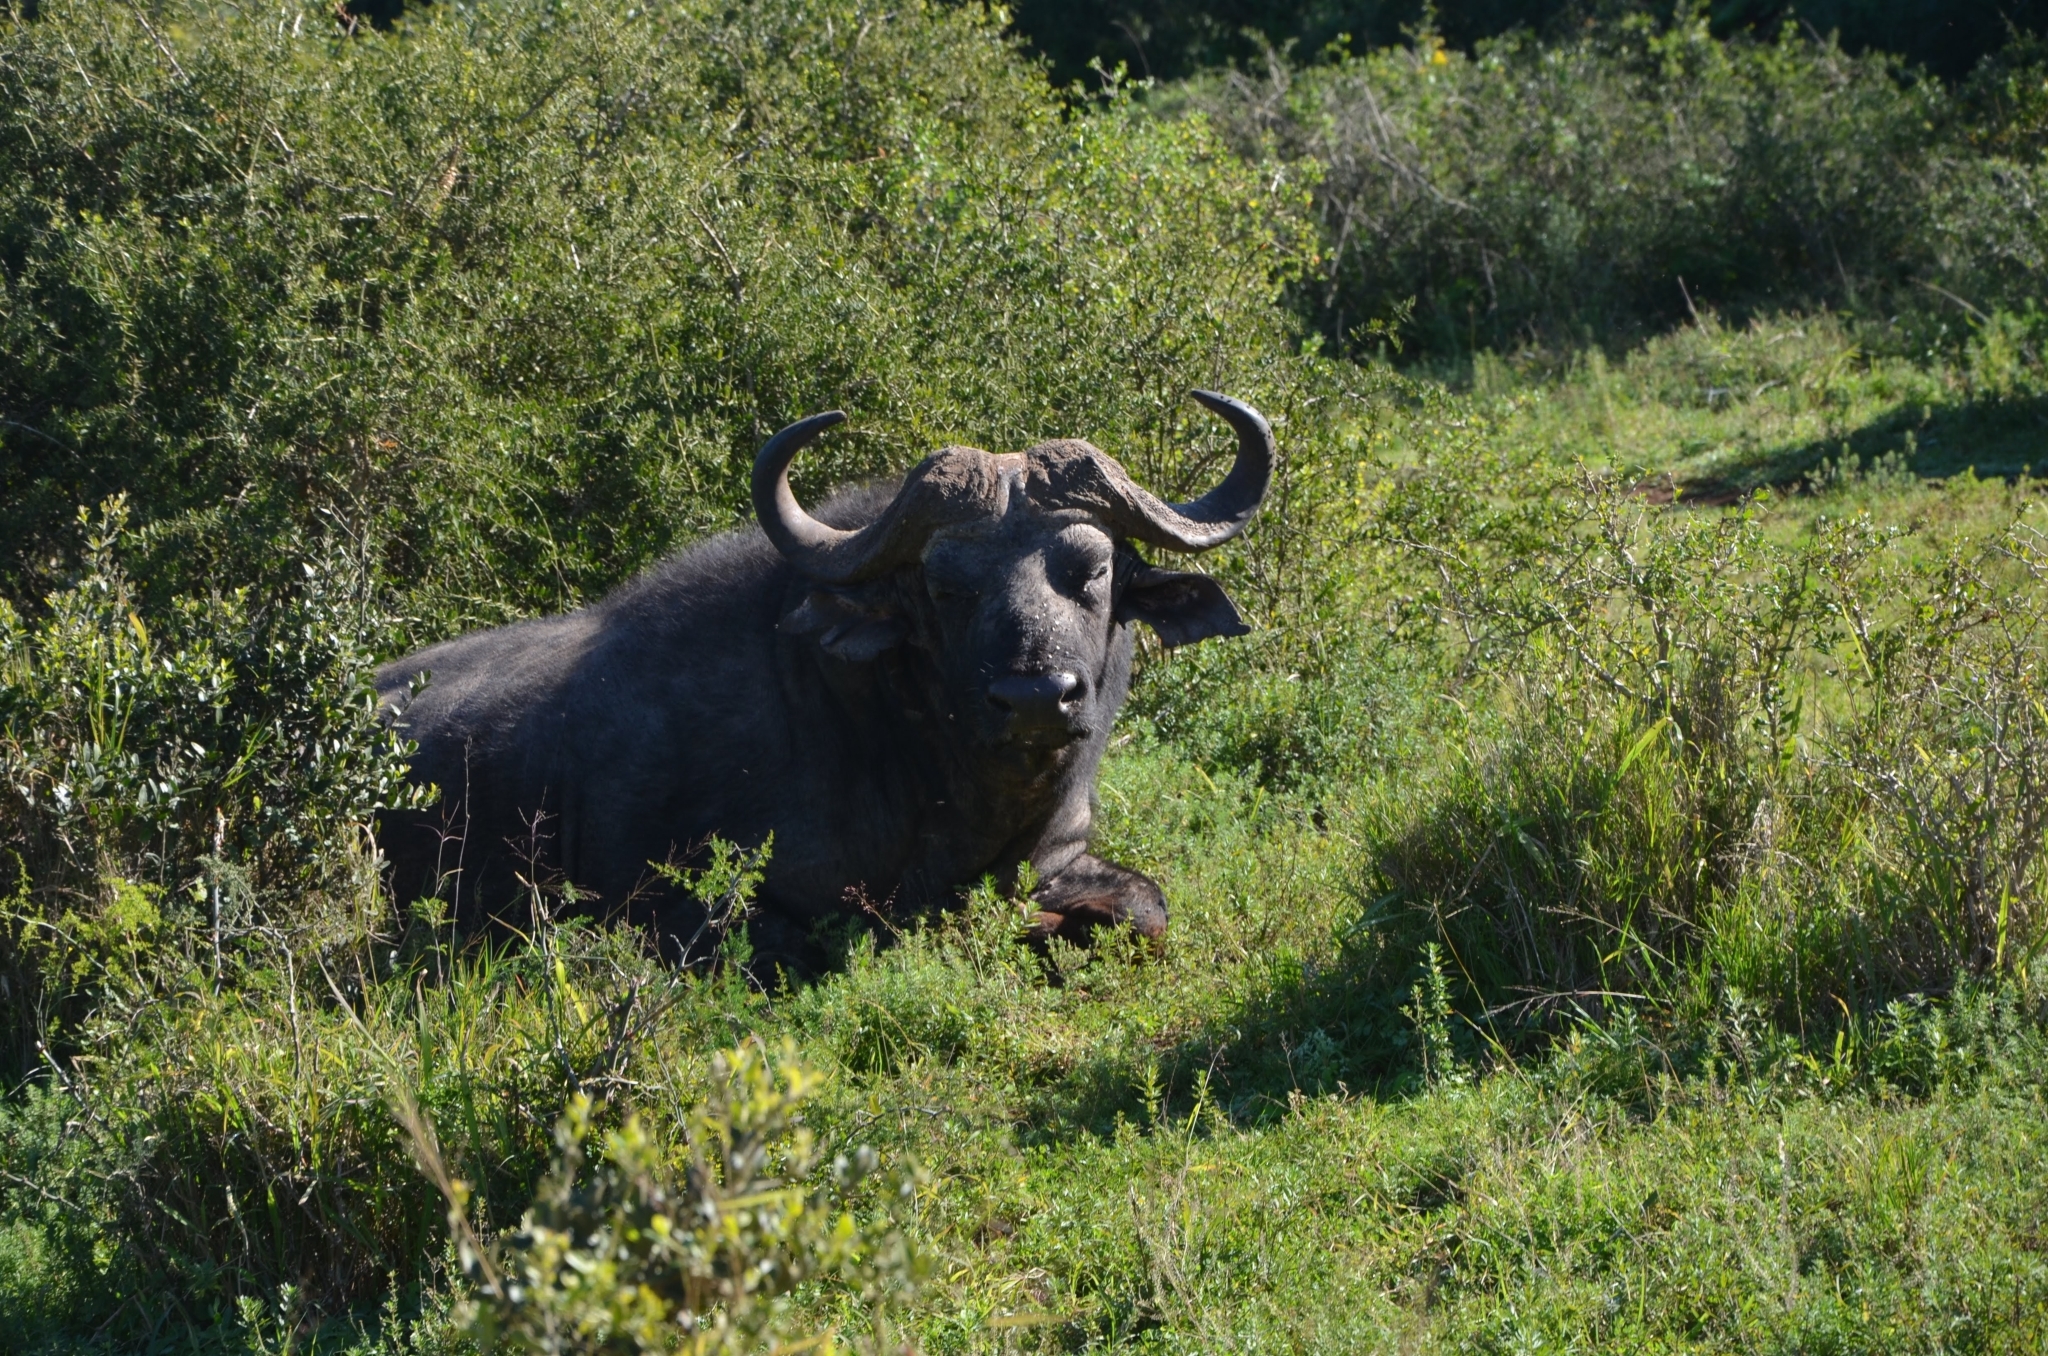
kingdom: Animalia
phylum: Chordata
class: Mammalia
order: Artiodactyla
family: Bovidae
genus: Syncerus
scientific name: Syncerus caffer
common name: African buffalo
